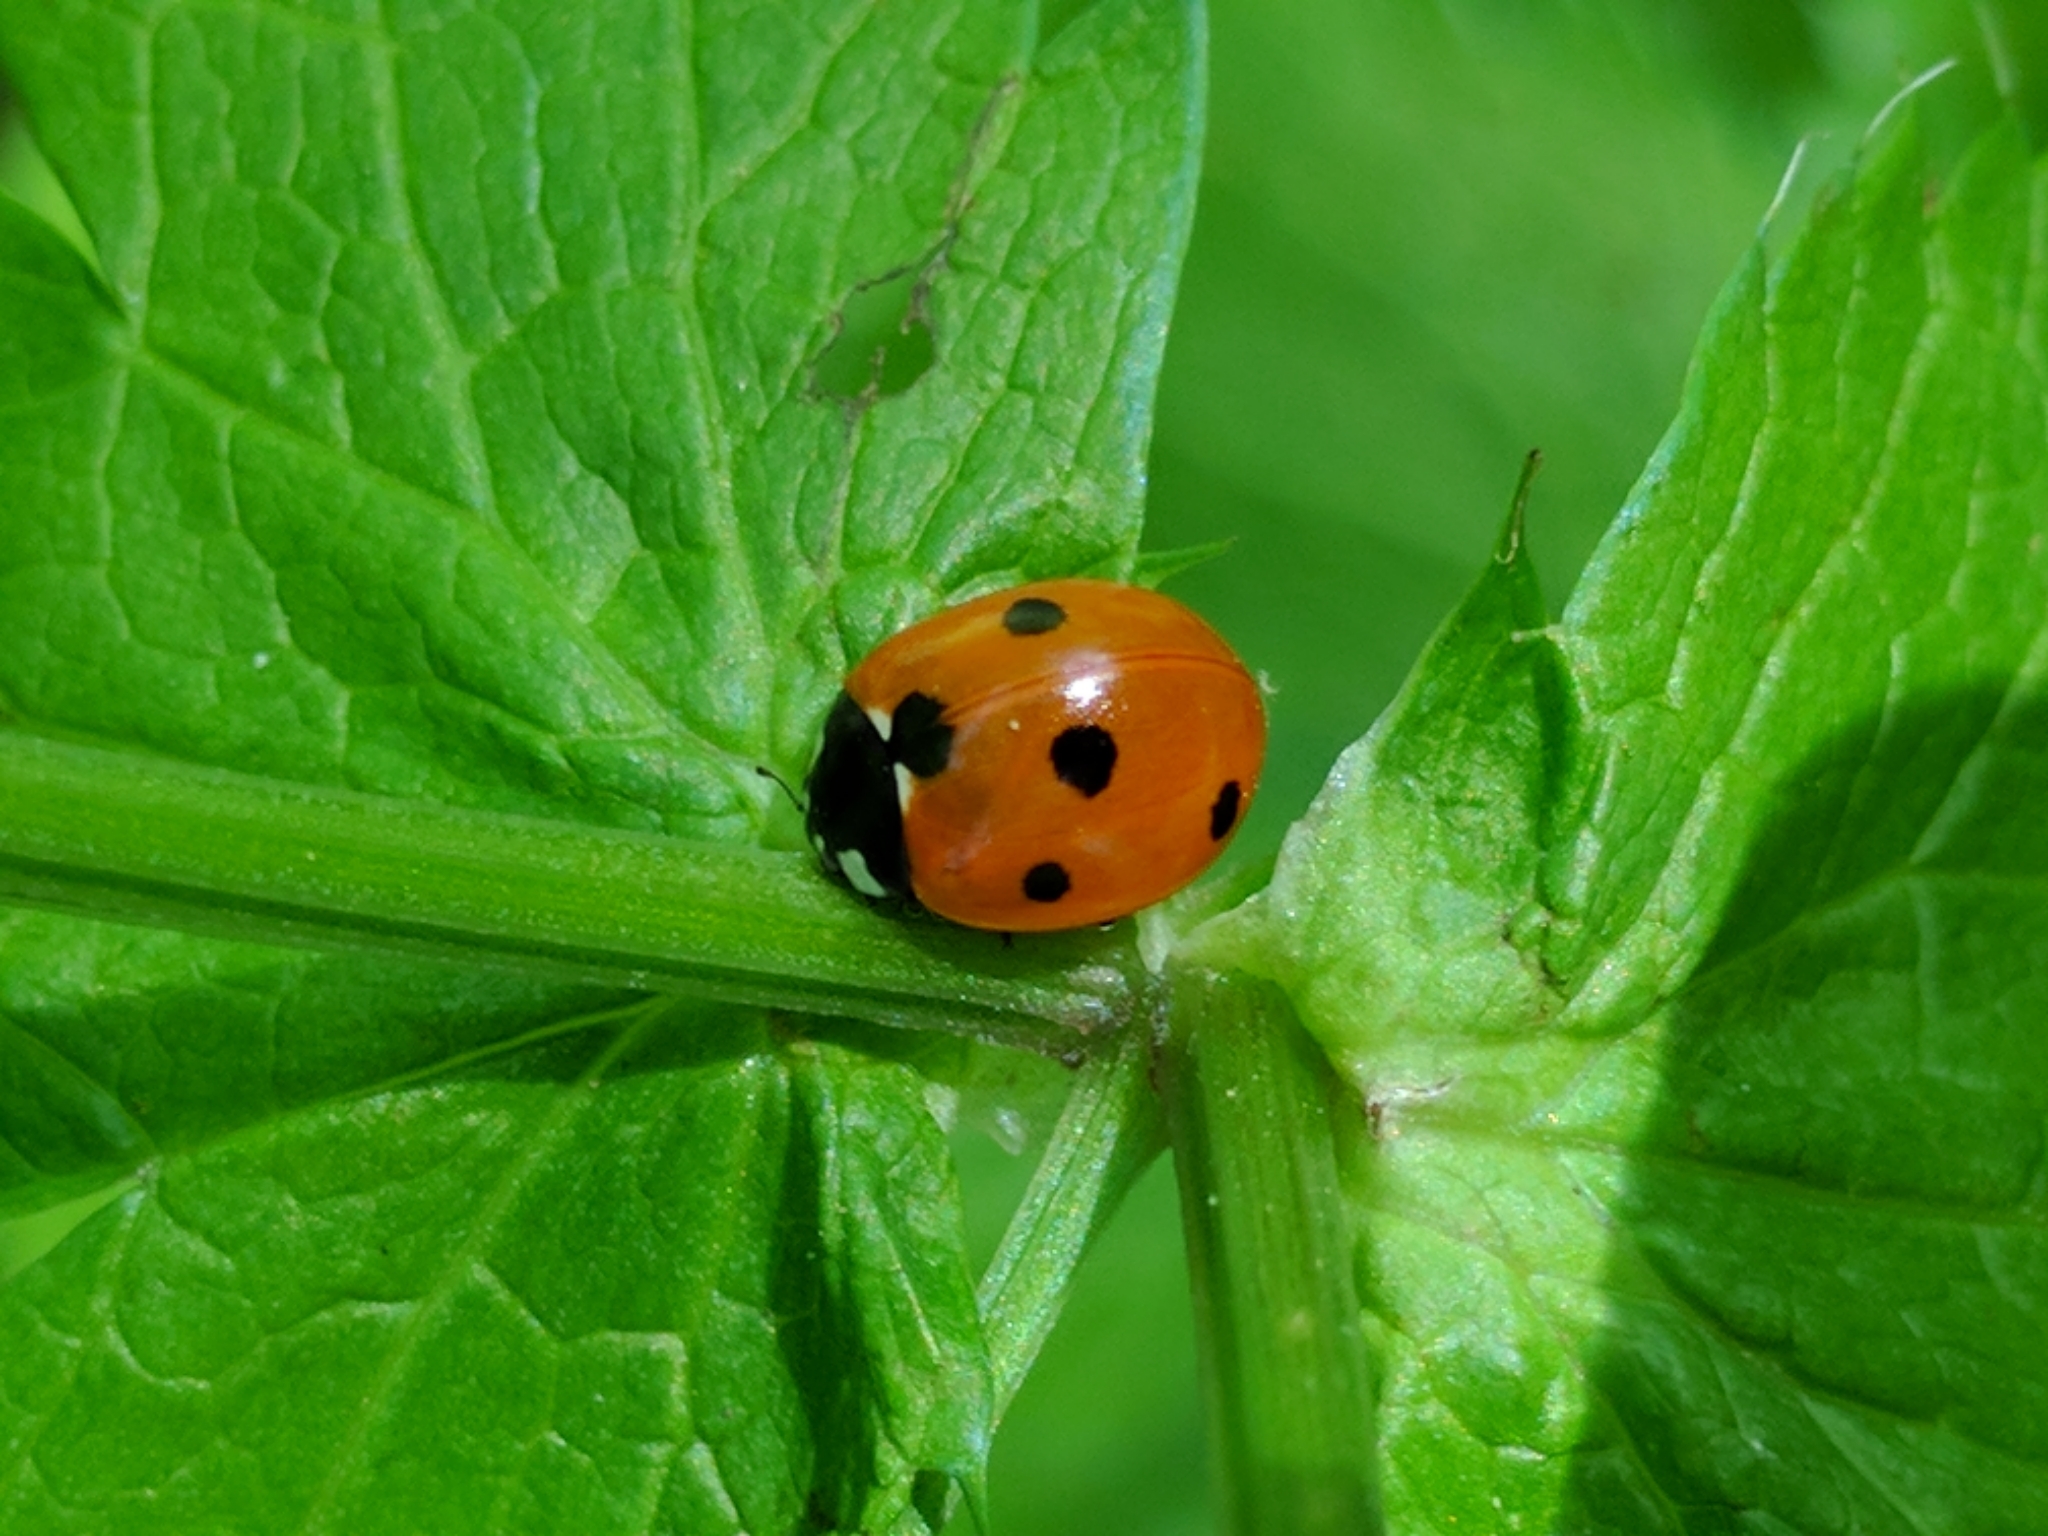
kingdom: Animalia
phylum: Arthropoda
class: Insecta
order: Coleoptera
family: Coccinellidae
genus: Coccinella
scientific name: Coccinella septempunctata
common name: Sevenspotted lady beetle
